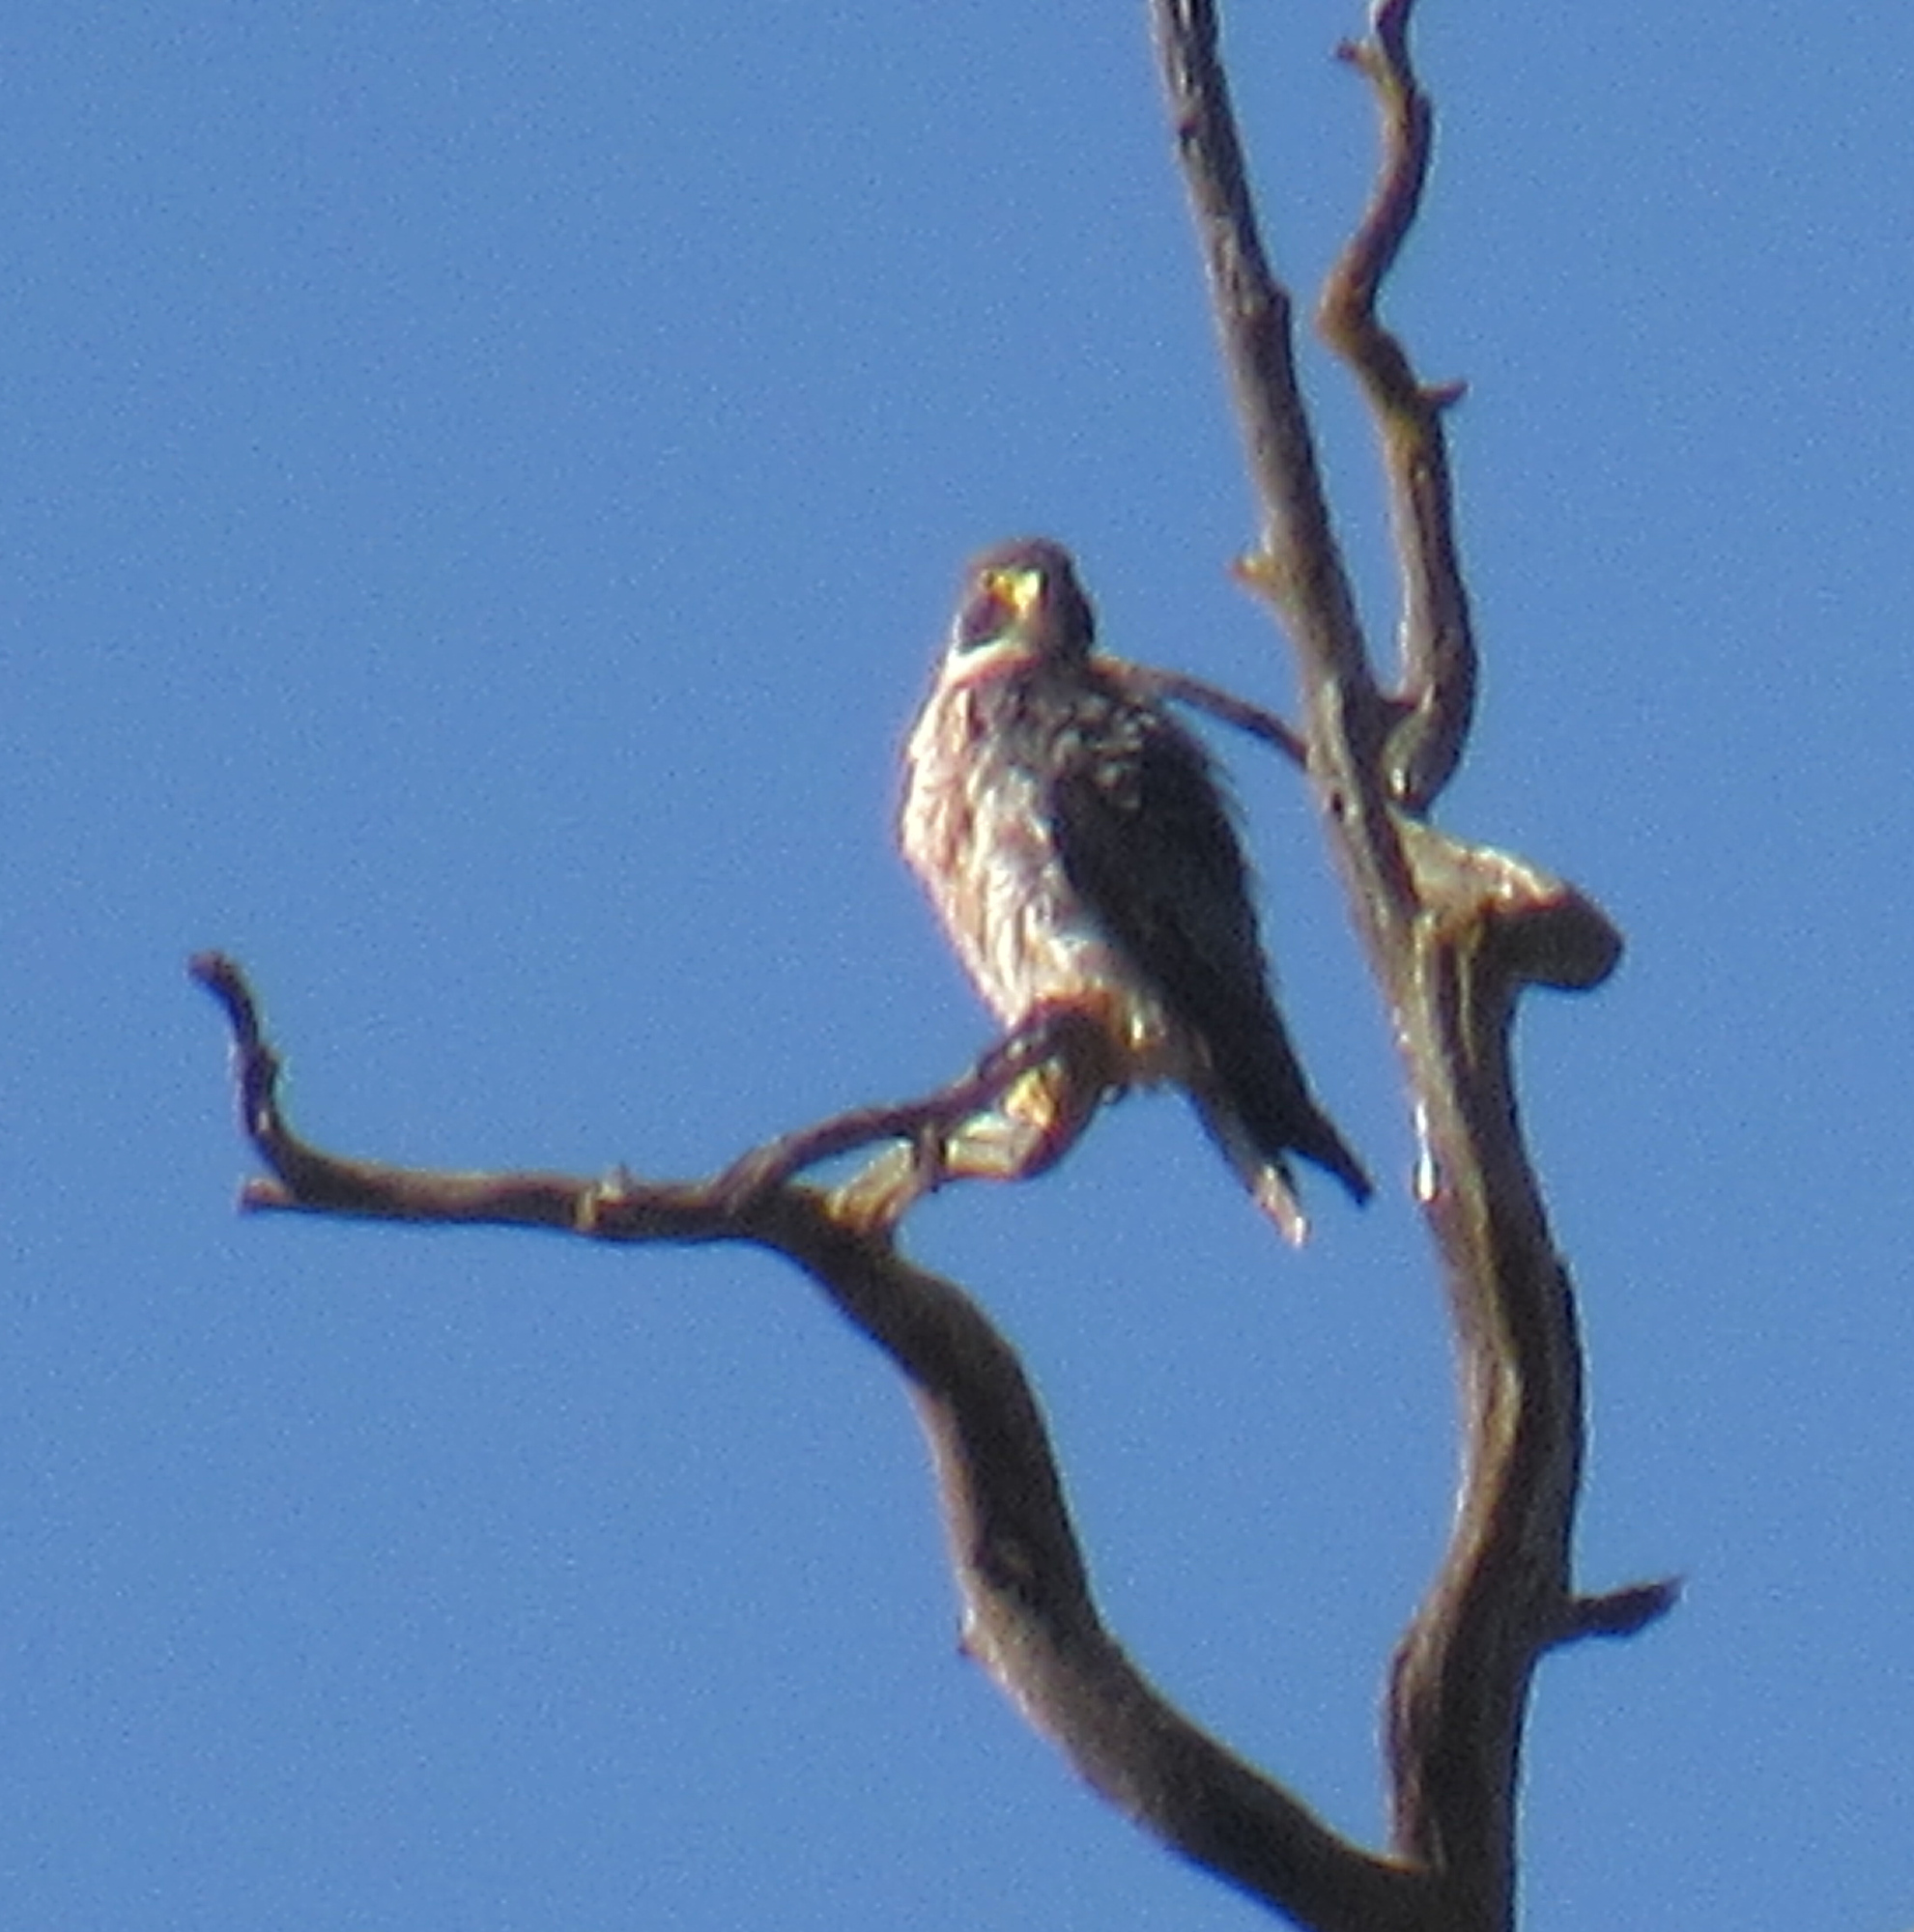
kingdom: Animalia
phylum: Chordata
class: Aves
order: Falconiformes
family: Falconidae
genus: Falco
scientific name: Falco peregrinus
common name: Peregrine falcon
